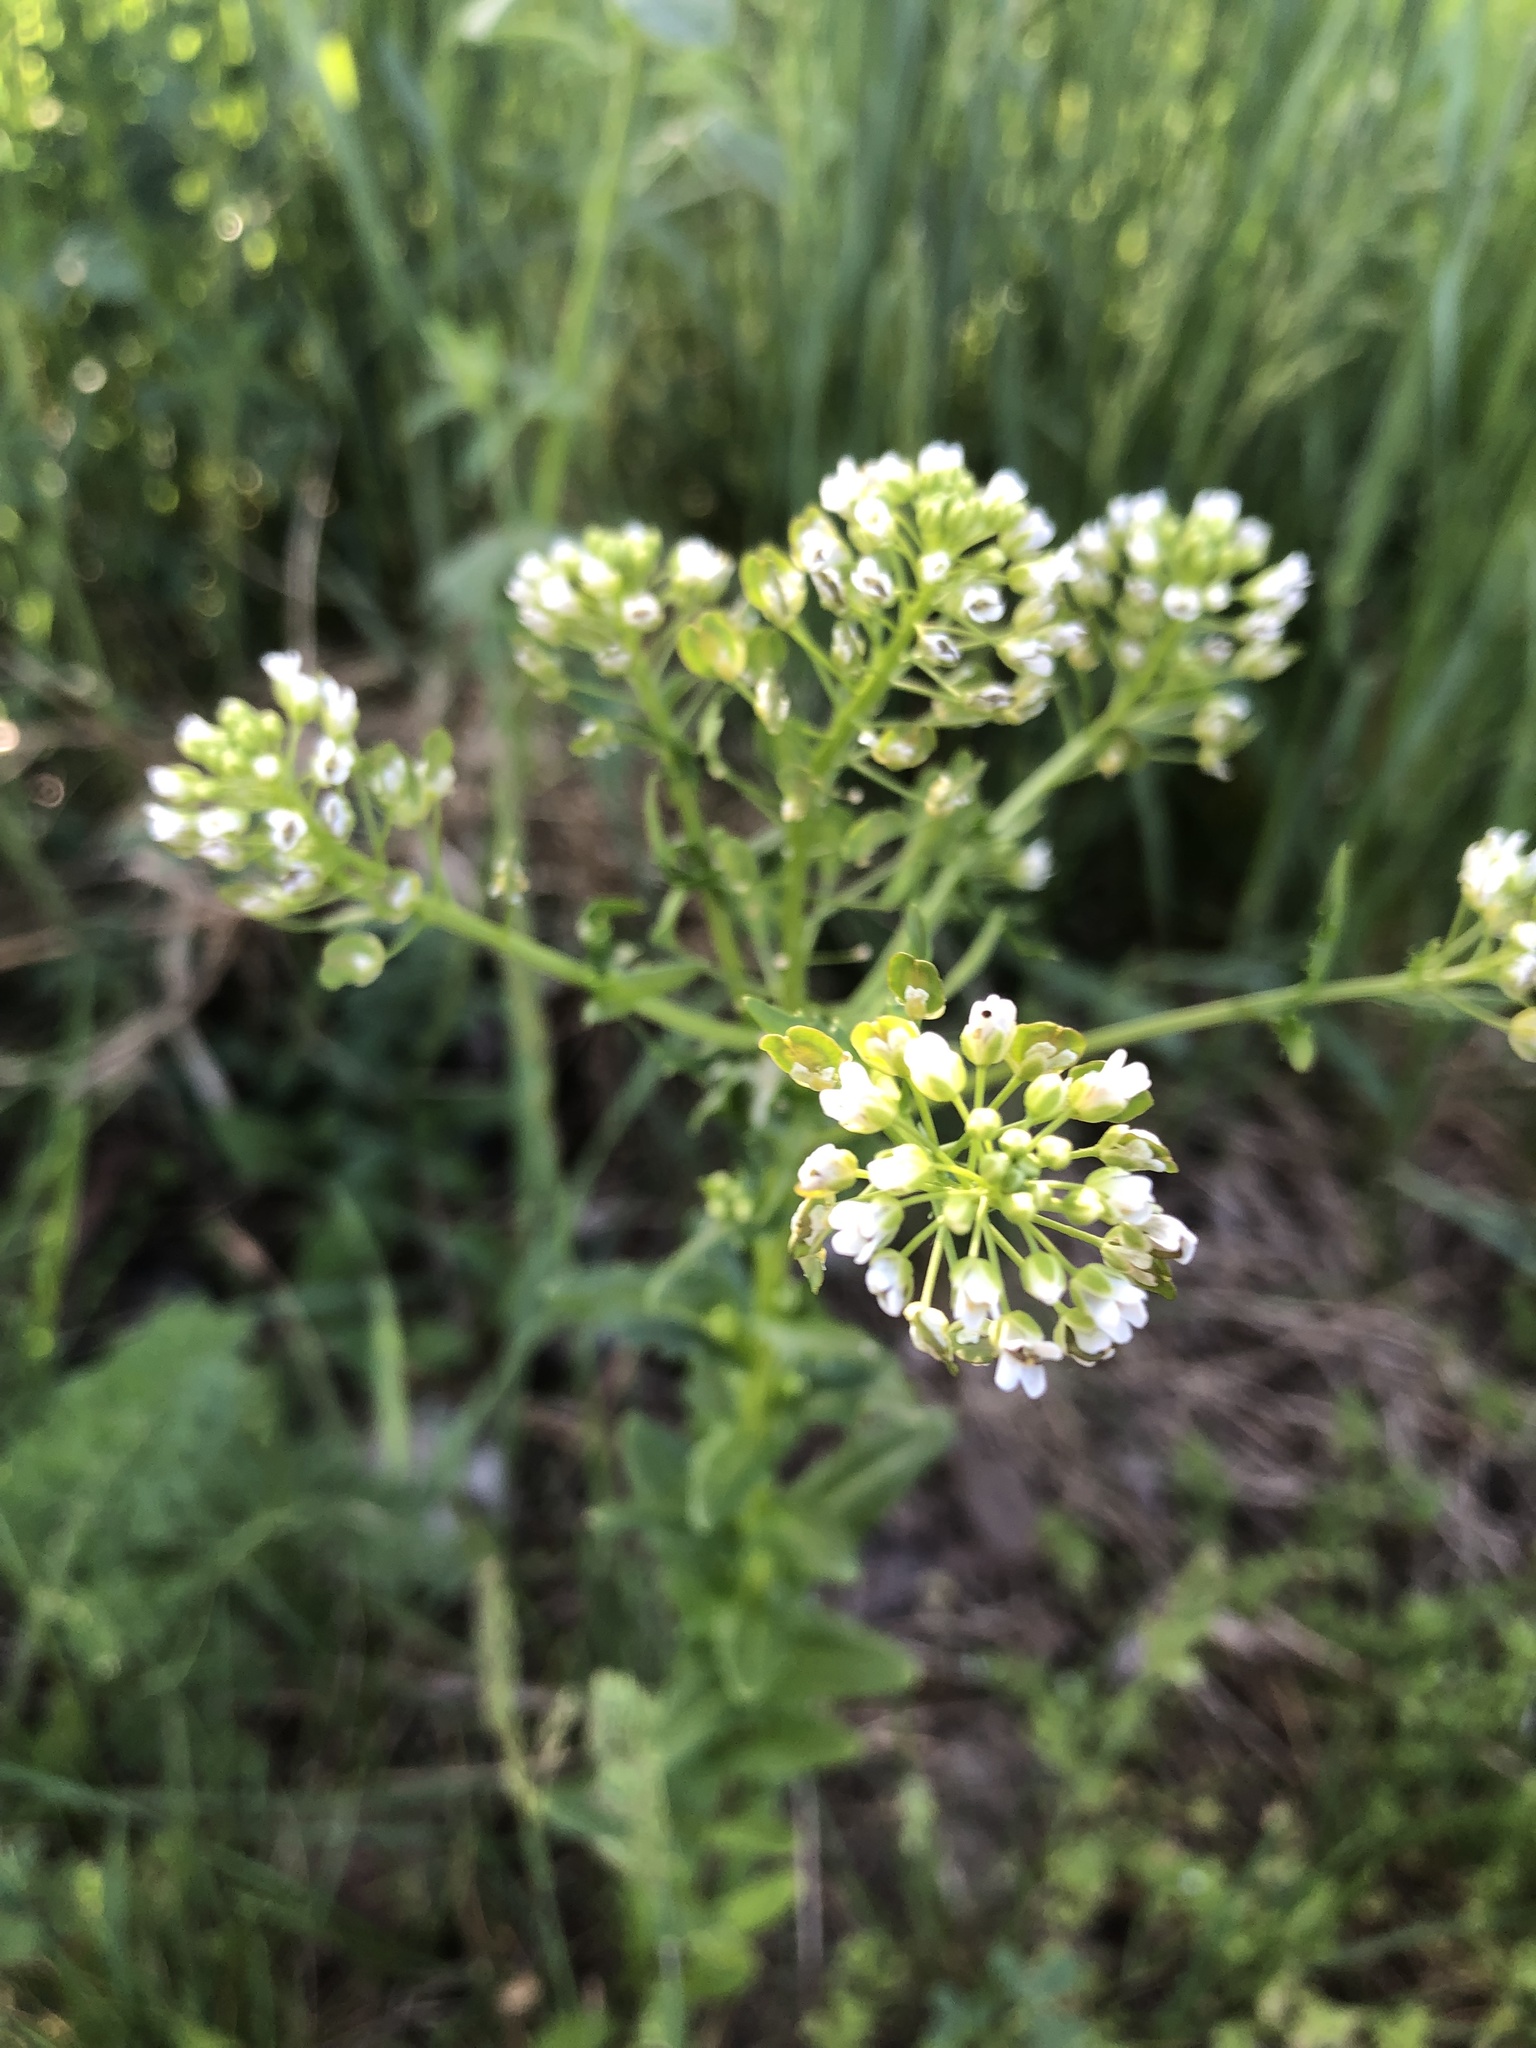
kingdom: Plantae
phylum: Tracheophyta
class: Magnoliopsida
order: Brassicales
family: Brassicaceae
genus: Thlaspi
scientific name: Thlaspi arvense
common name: Field pennycress
